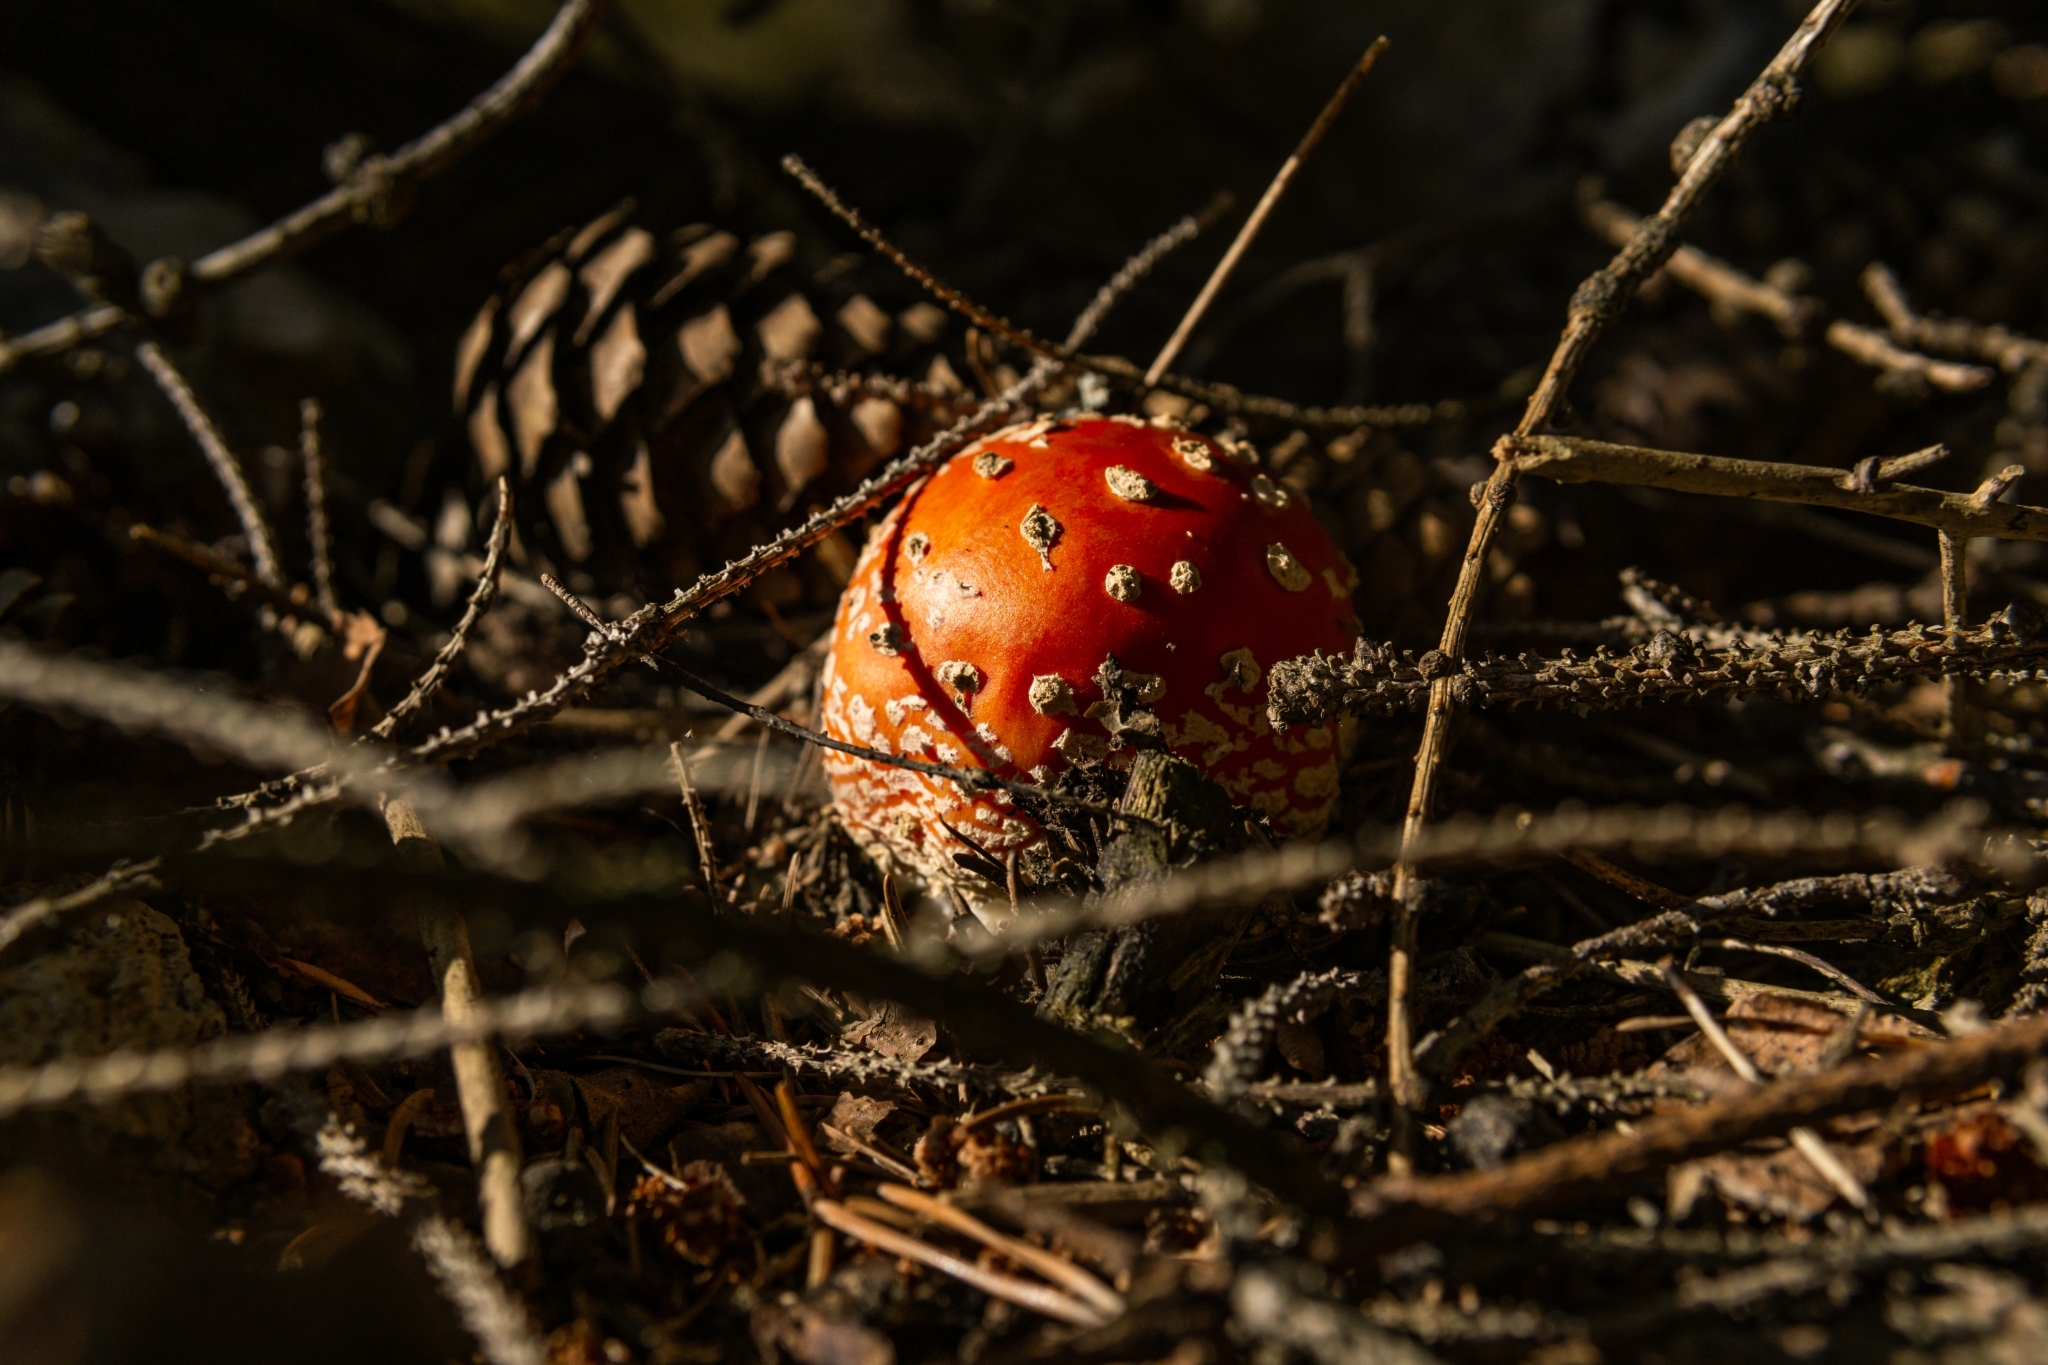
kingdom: Fungi
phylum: Basidiomycota
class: Agaricomycetes
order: Agaricales
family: Amanitaceae
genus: Amanita
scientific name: Amanita muscaria
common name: Fly agaric
